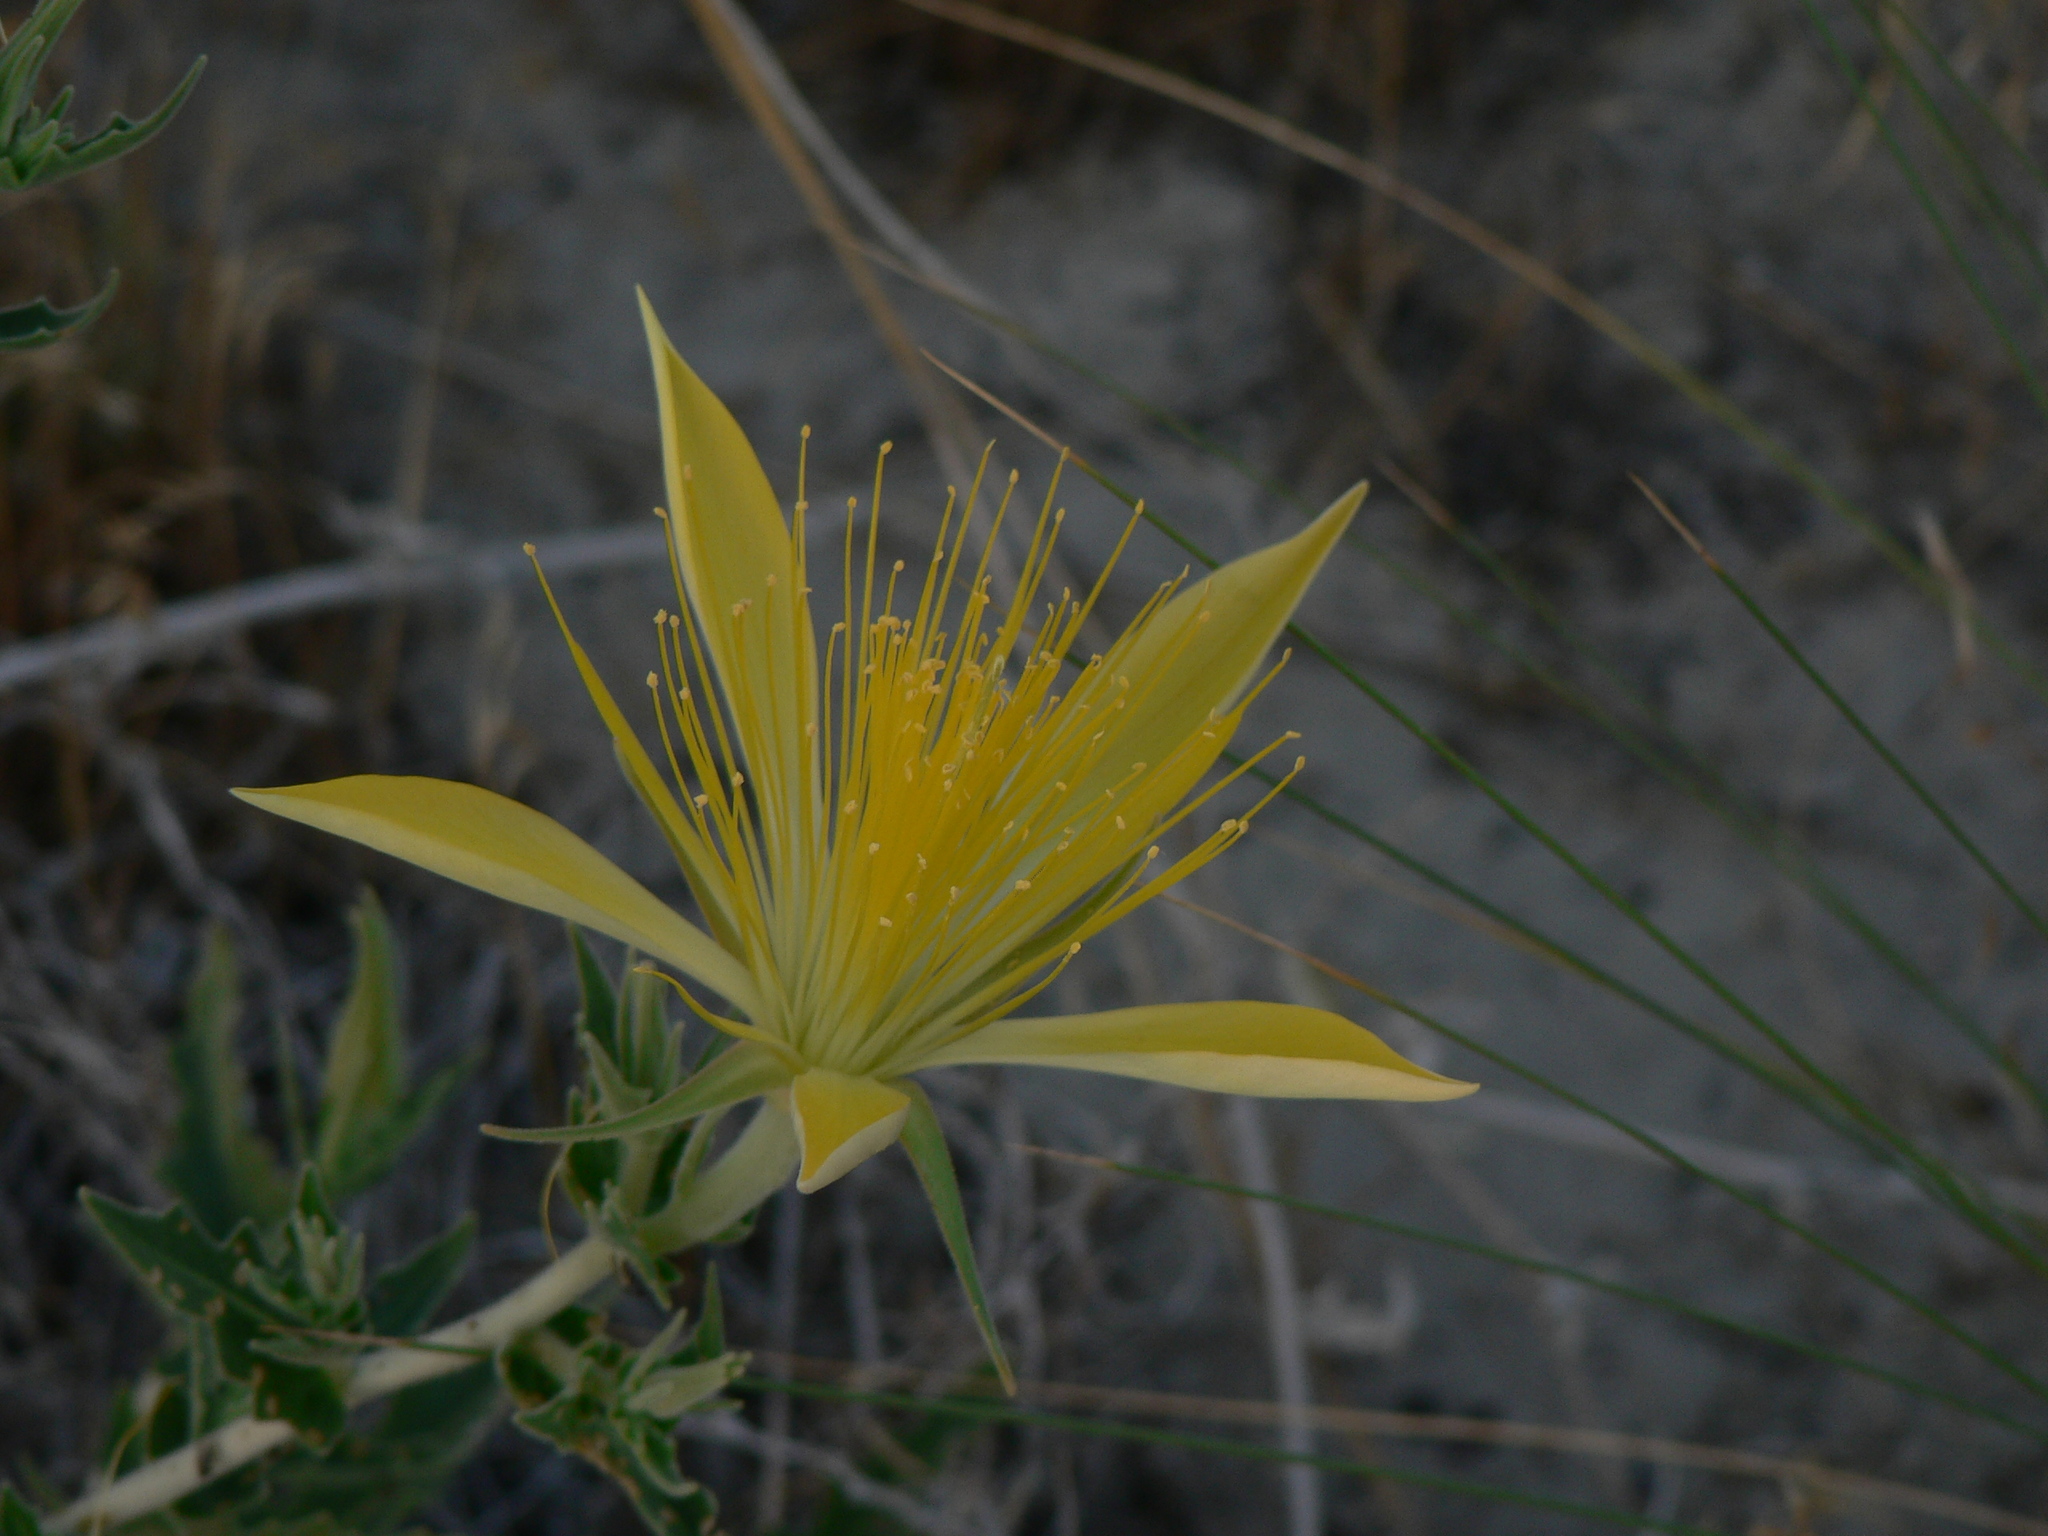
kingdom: Plantae
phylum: Tracheophyta
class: Magnoliopsida
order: Cornales
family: Loasaceae
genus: Mentzelia
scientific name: Mentzelia laevicaulis
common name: Smooth-stem blazingstar
